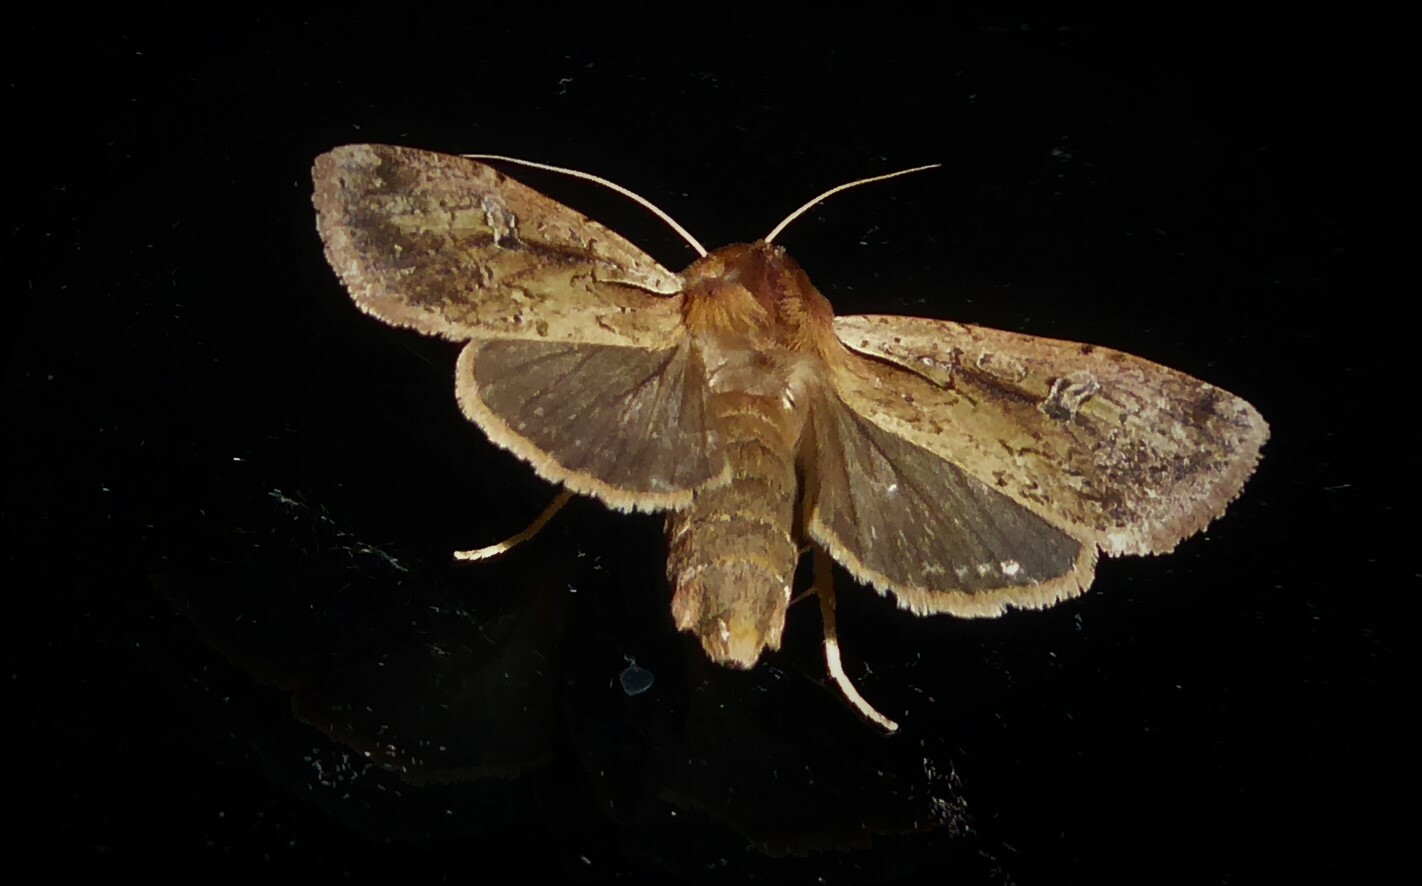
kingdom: Animalia
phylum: Arthropoda
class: Insecta
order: Lepidoptera
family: Noctuidae
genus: Ichneutica
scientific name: Ichneutica atristriga
